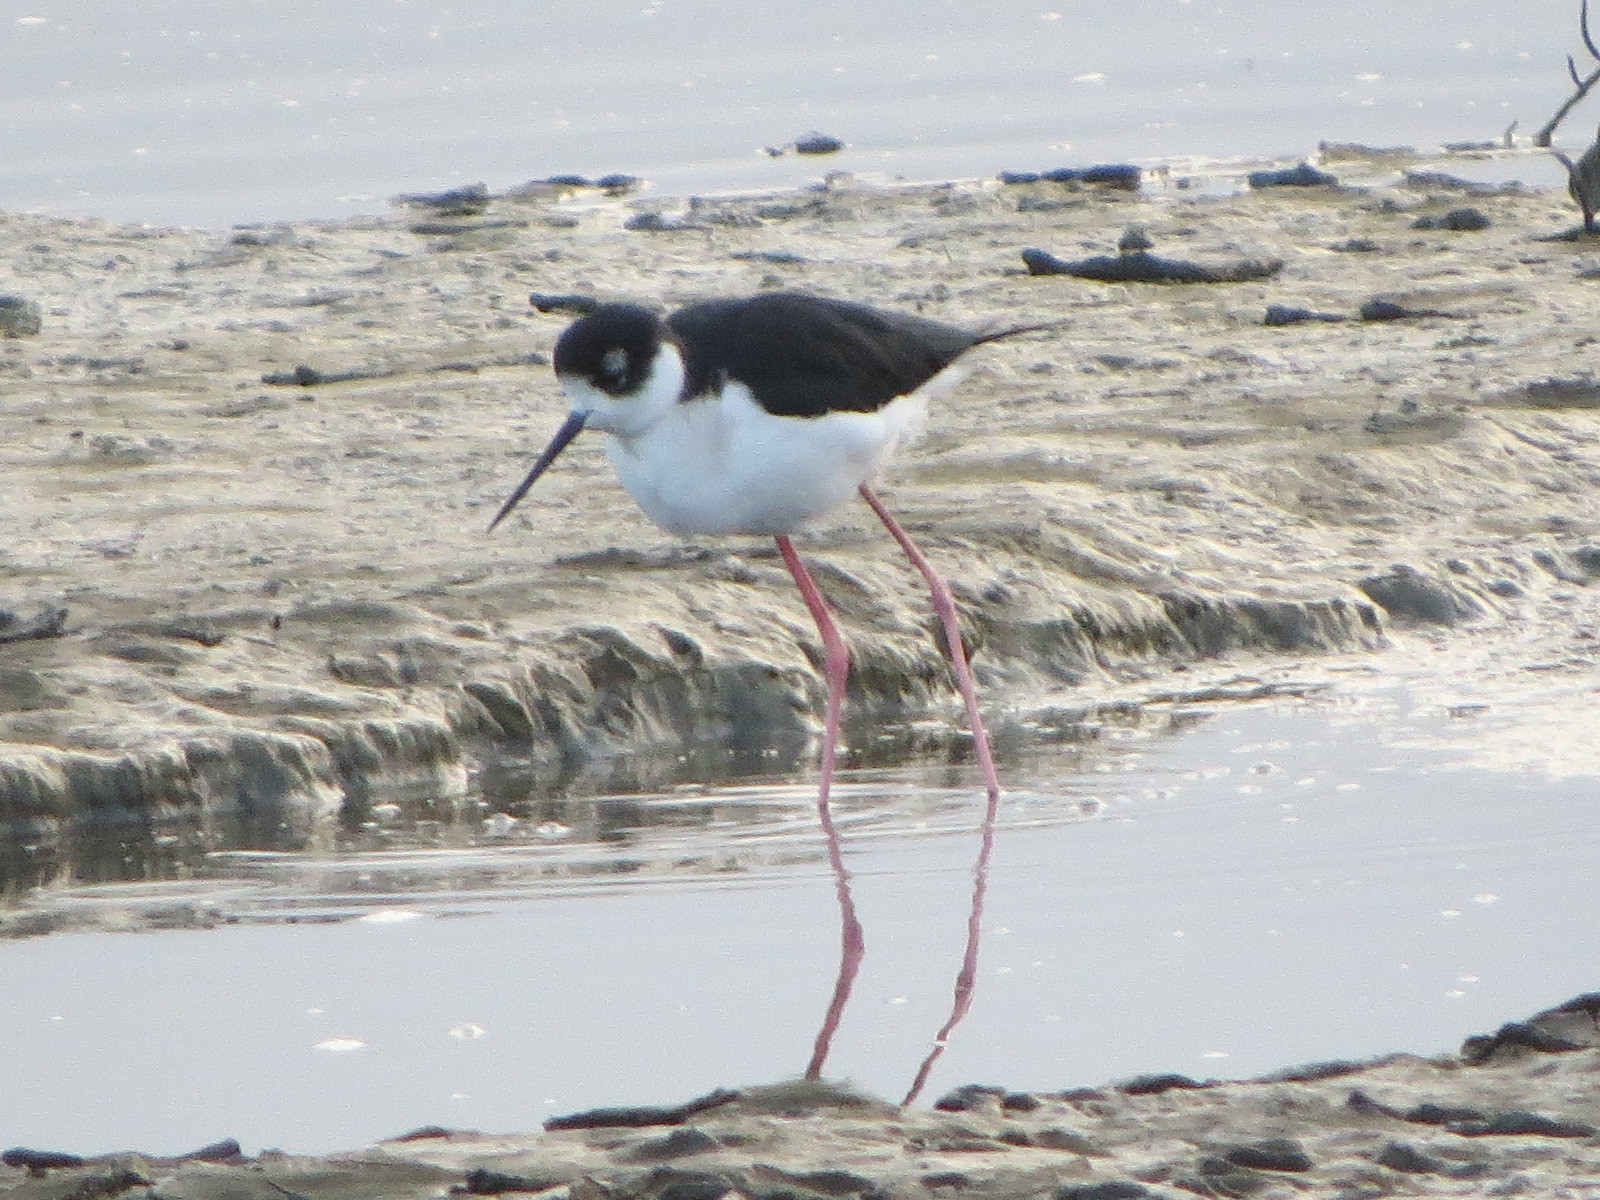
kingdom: Animalia
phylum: Chordata
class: Aves
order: Charadriiformes
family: Recurvirostridae
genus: Himantopus
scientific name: Himantopus mexicanus
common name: Black-necked stilt
